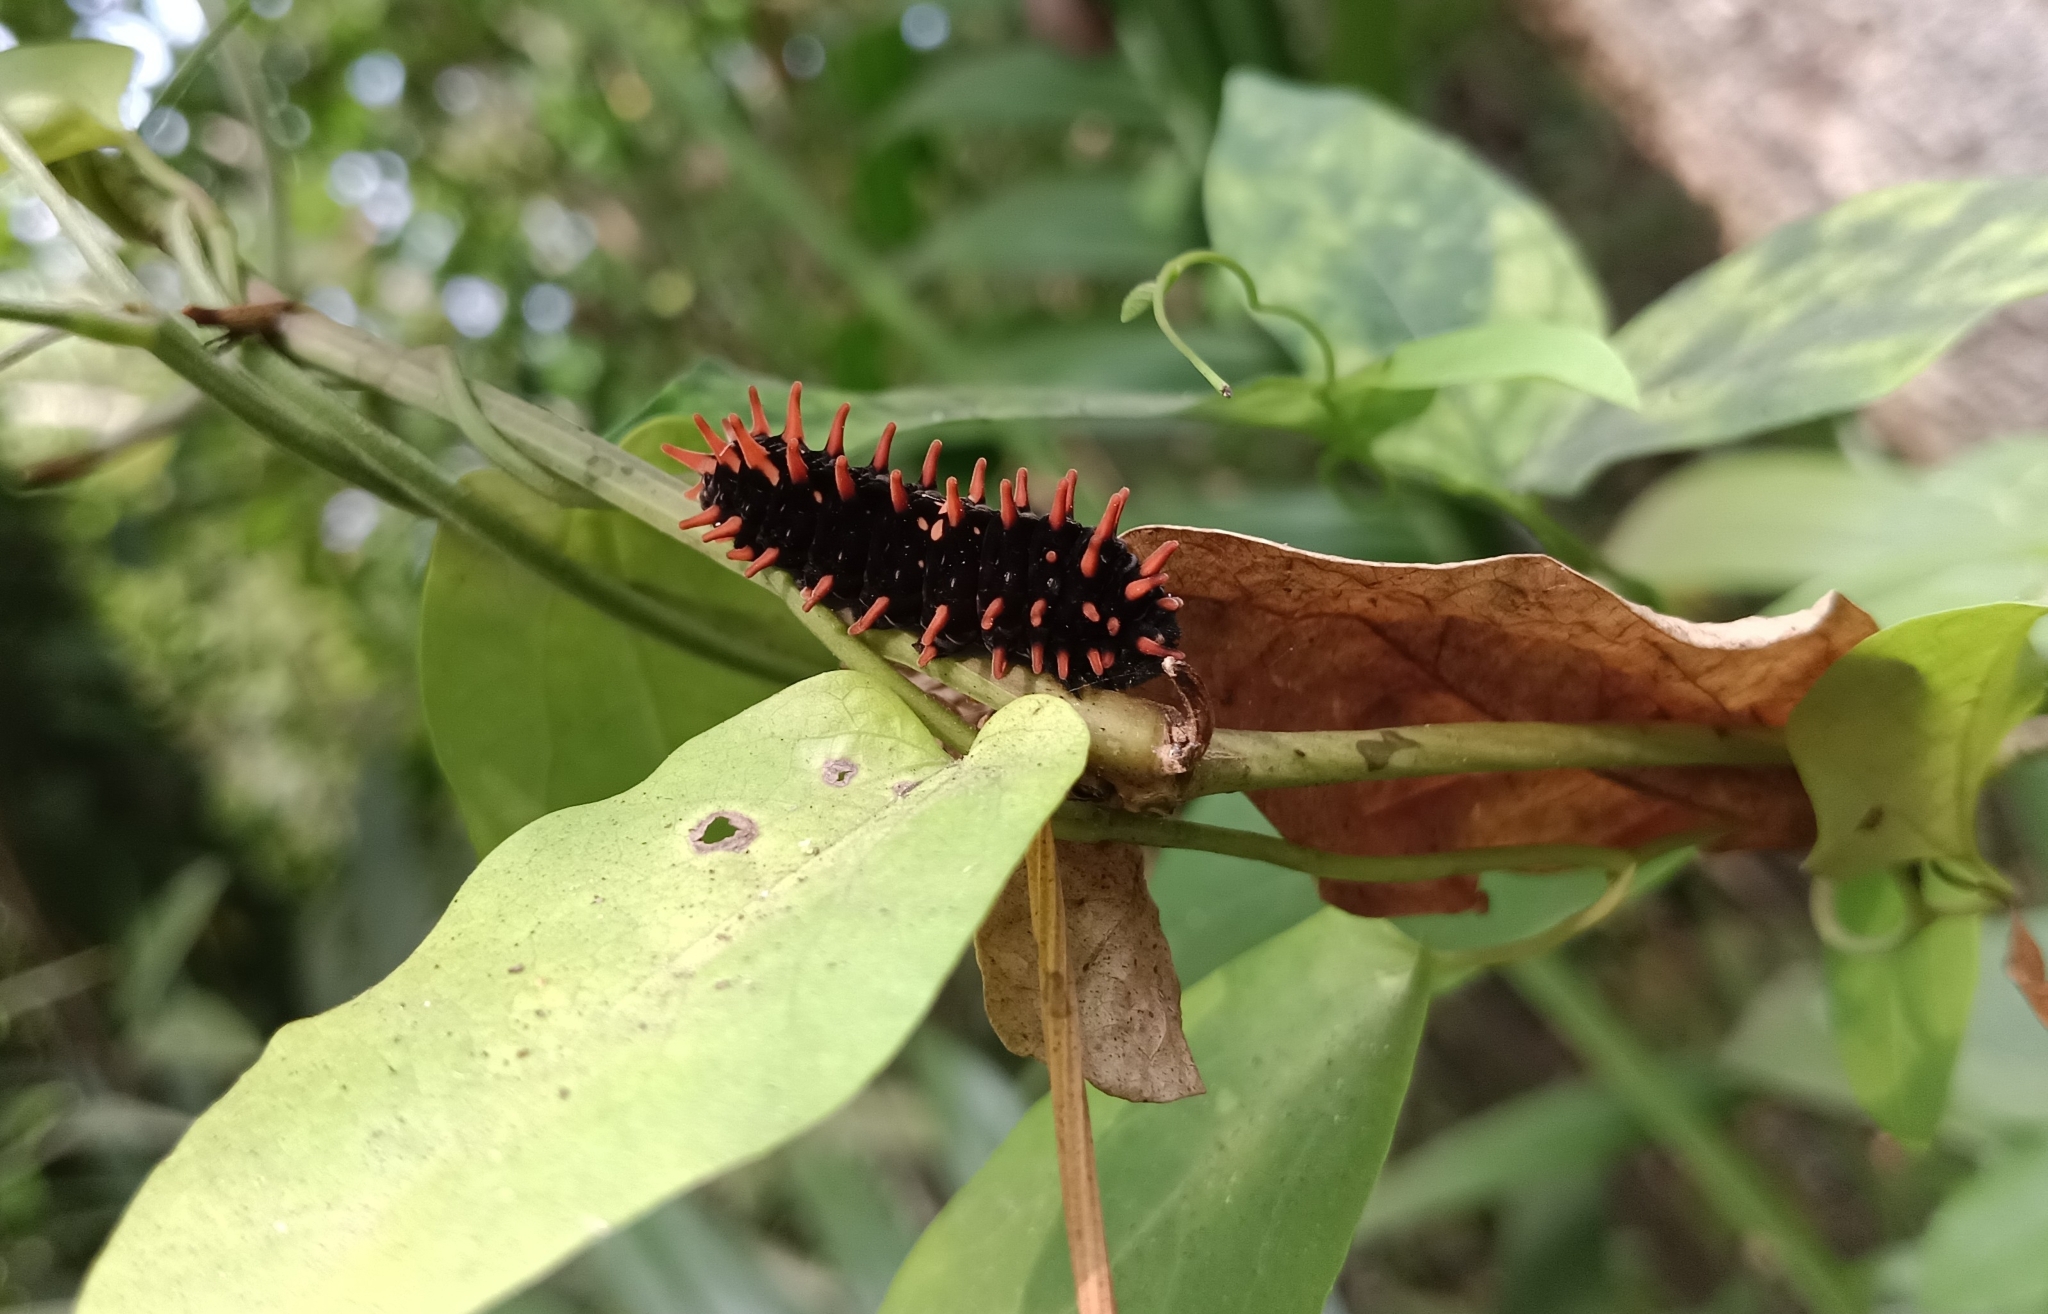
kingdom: Animalia
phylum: Arthropoda
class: Insecta
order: Lepidoptera
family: Papilionidae
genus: Pachliopta
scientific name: Pachliopta hector
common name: Crimson rose
